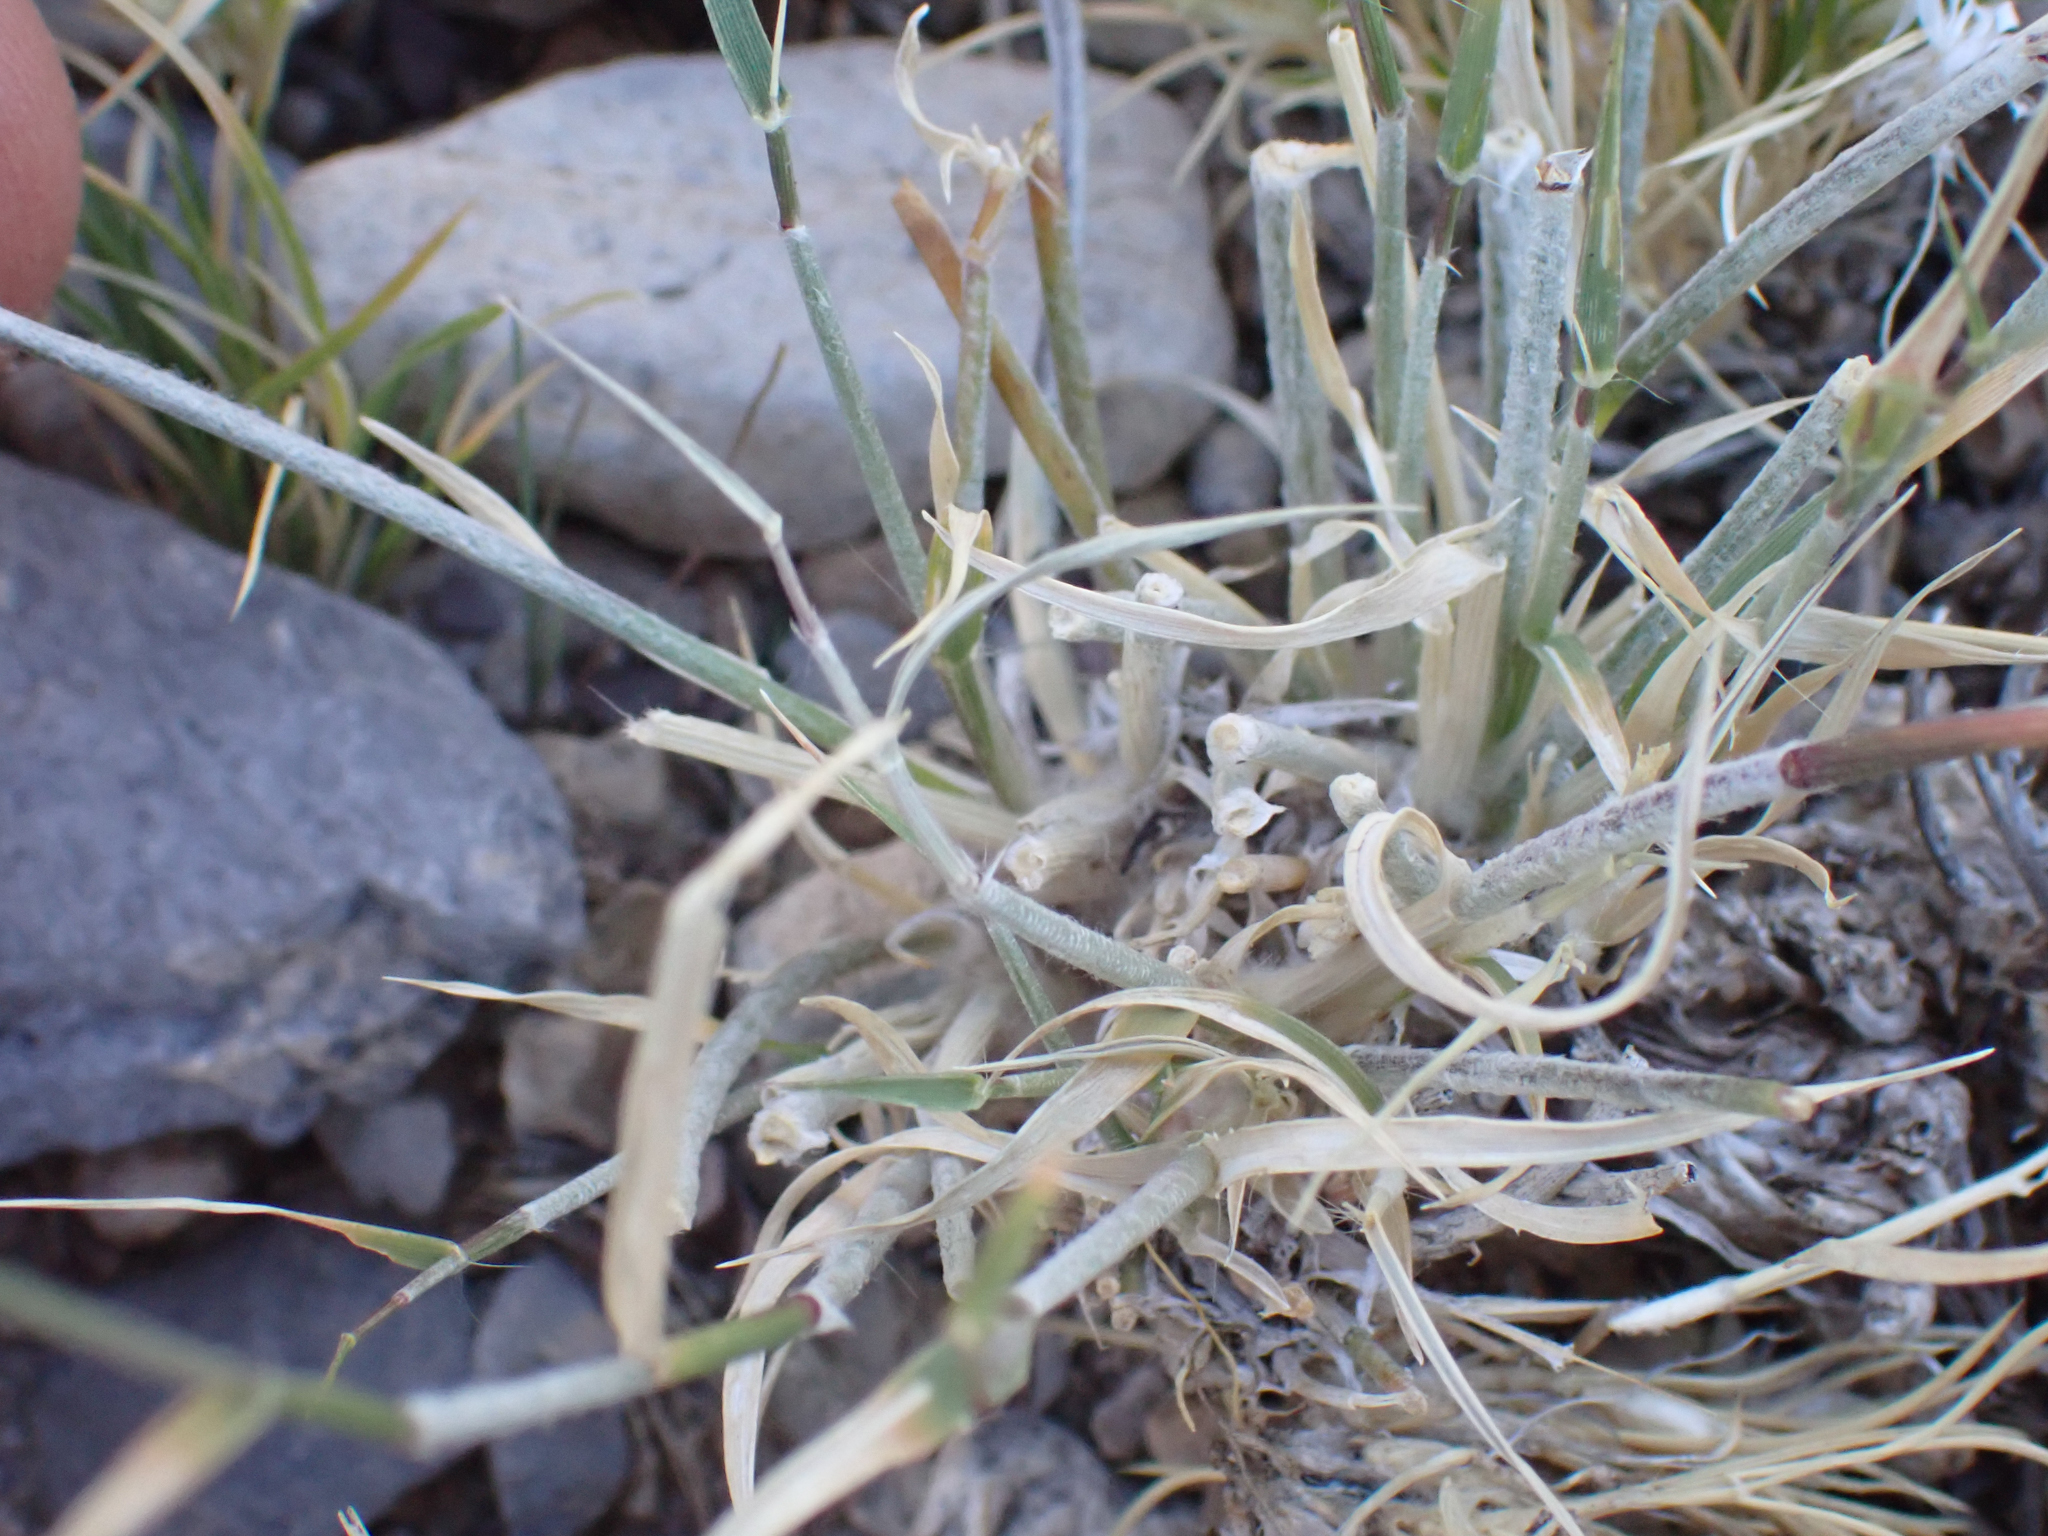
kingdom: Plantae
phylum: Tracheophyta
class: Liliopsida
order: Poales
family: Poaceae
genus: Bouteloua
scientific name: Bouteloua trifida
